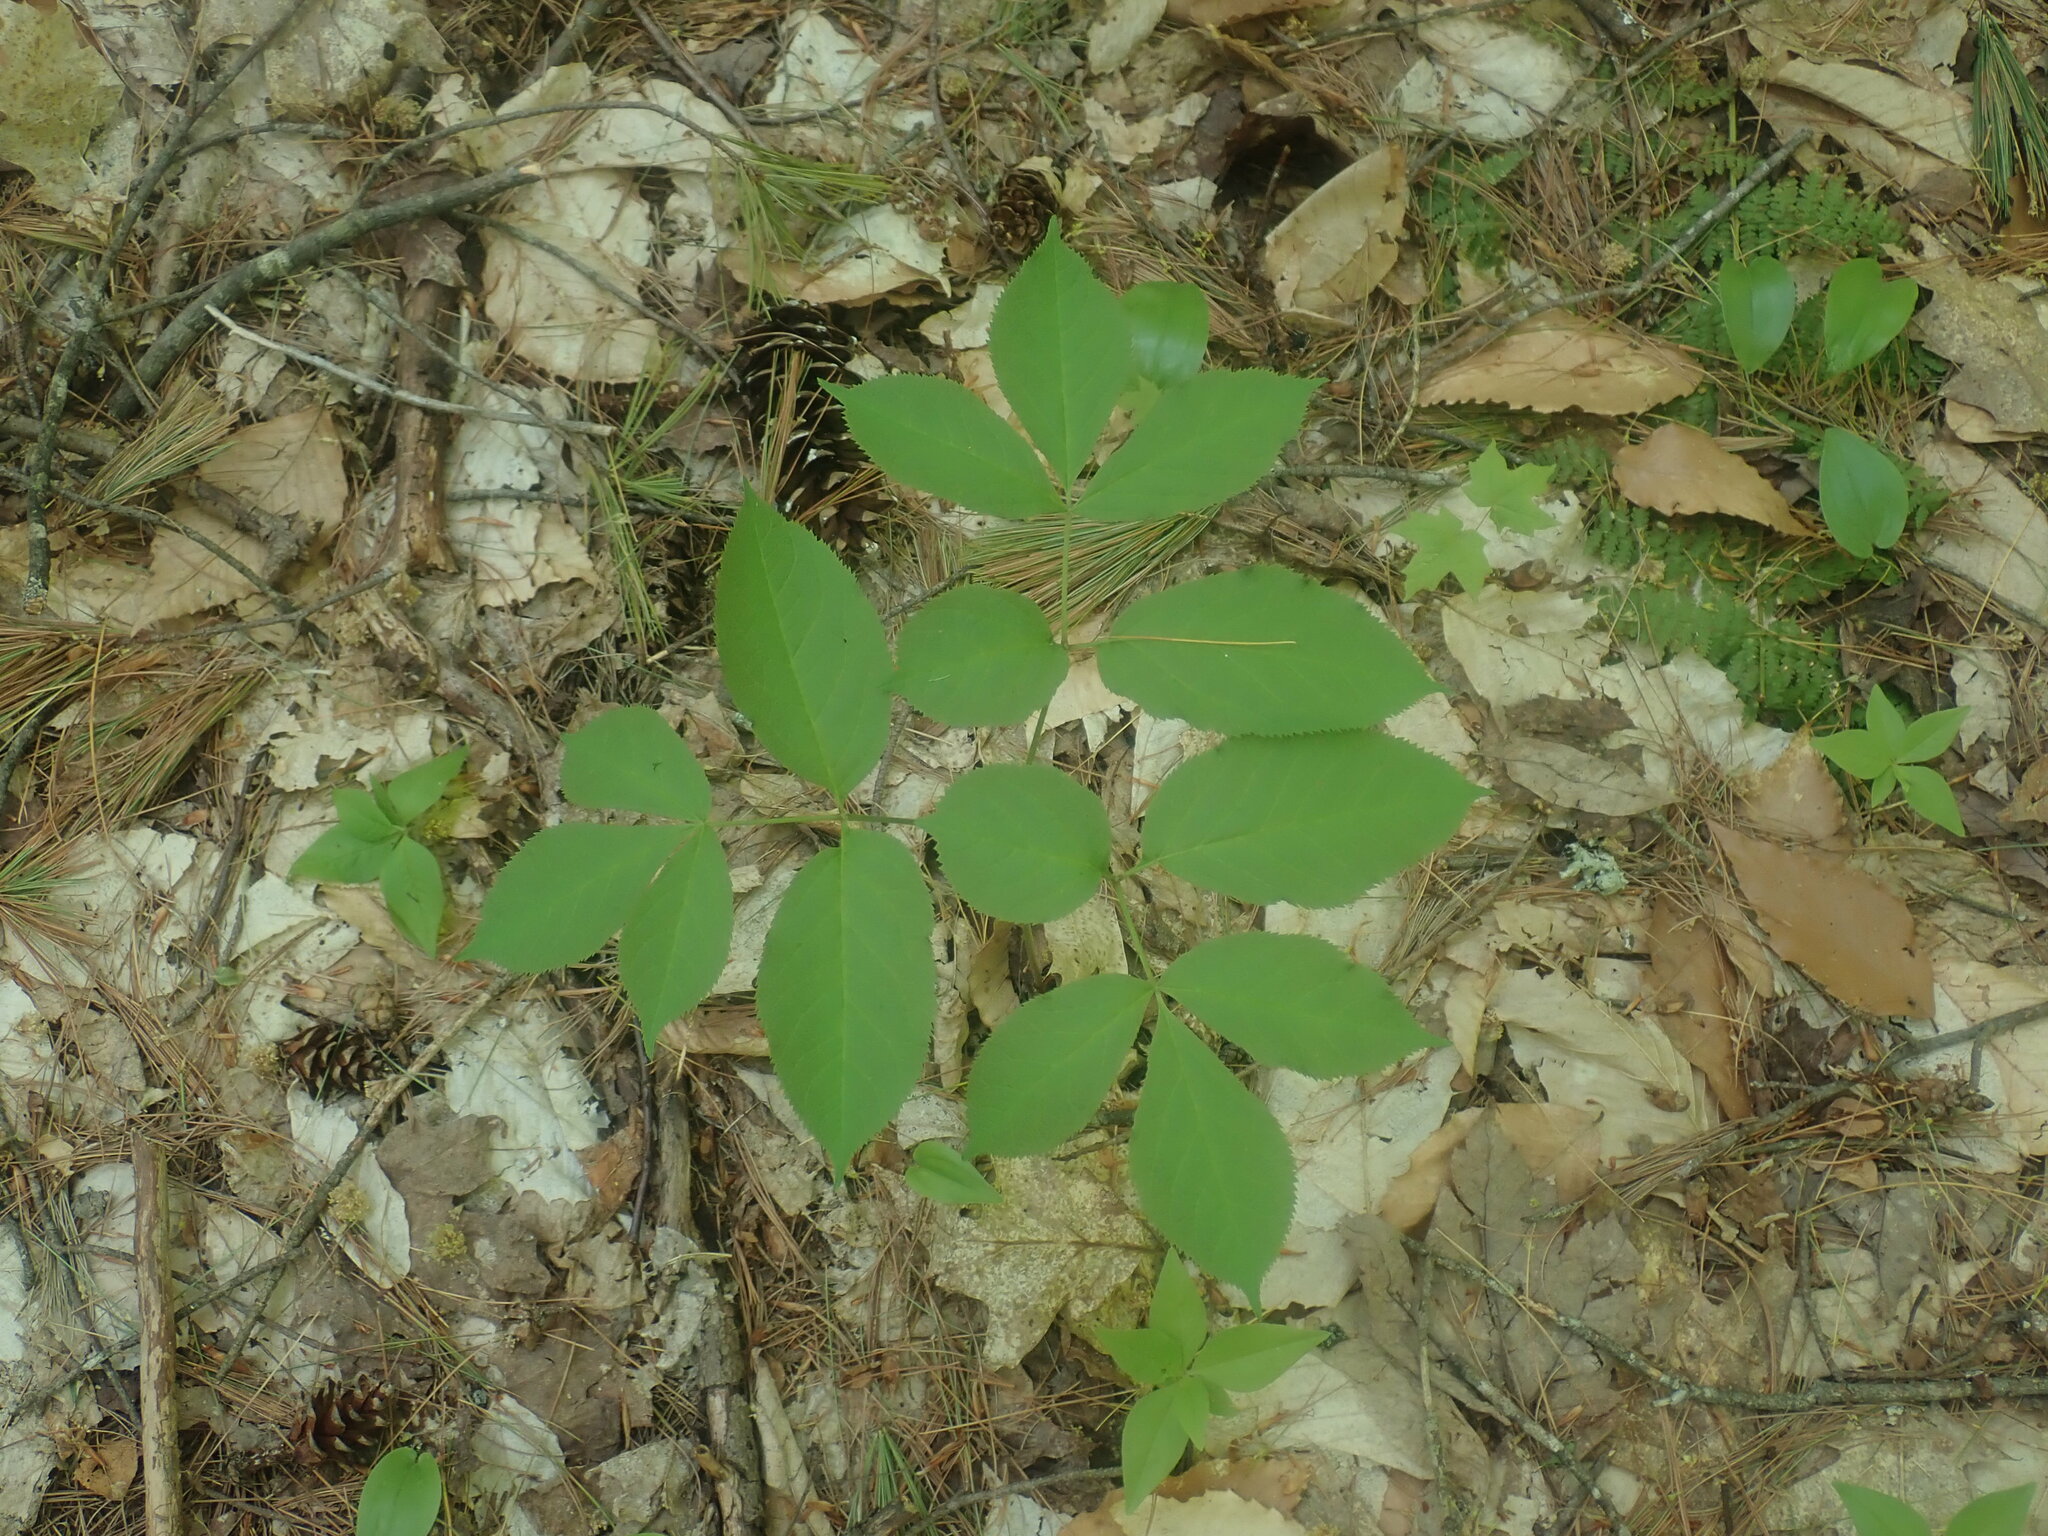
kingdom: Plantae
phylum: Tracheophyta
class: Magnoliopsida
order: Apiales
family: Araliaceae
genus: Aralia
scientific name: Aralia nudicaulis
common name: Wild sarsaparilla
